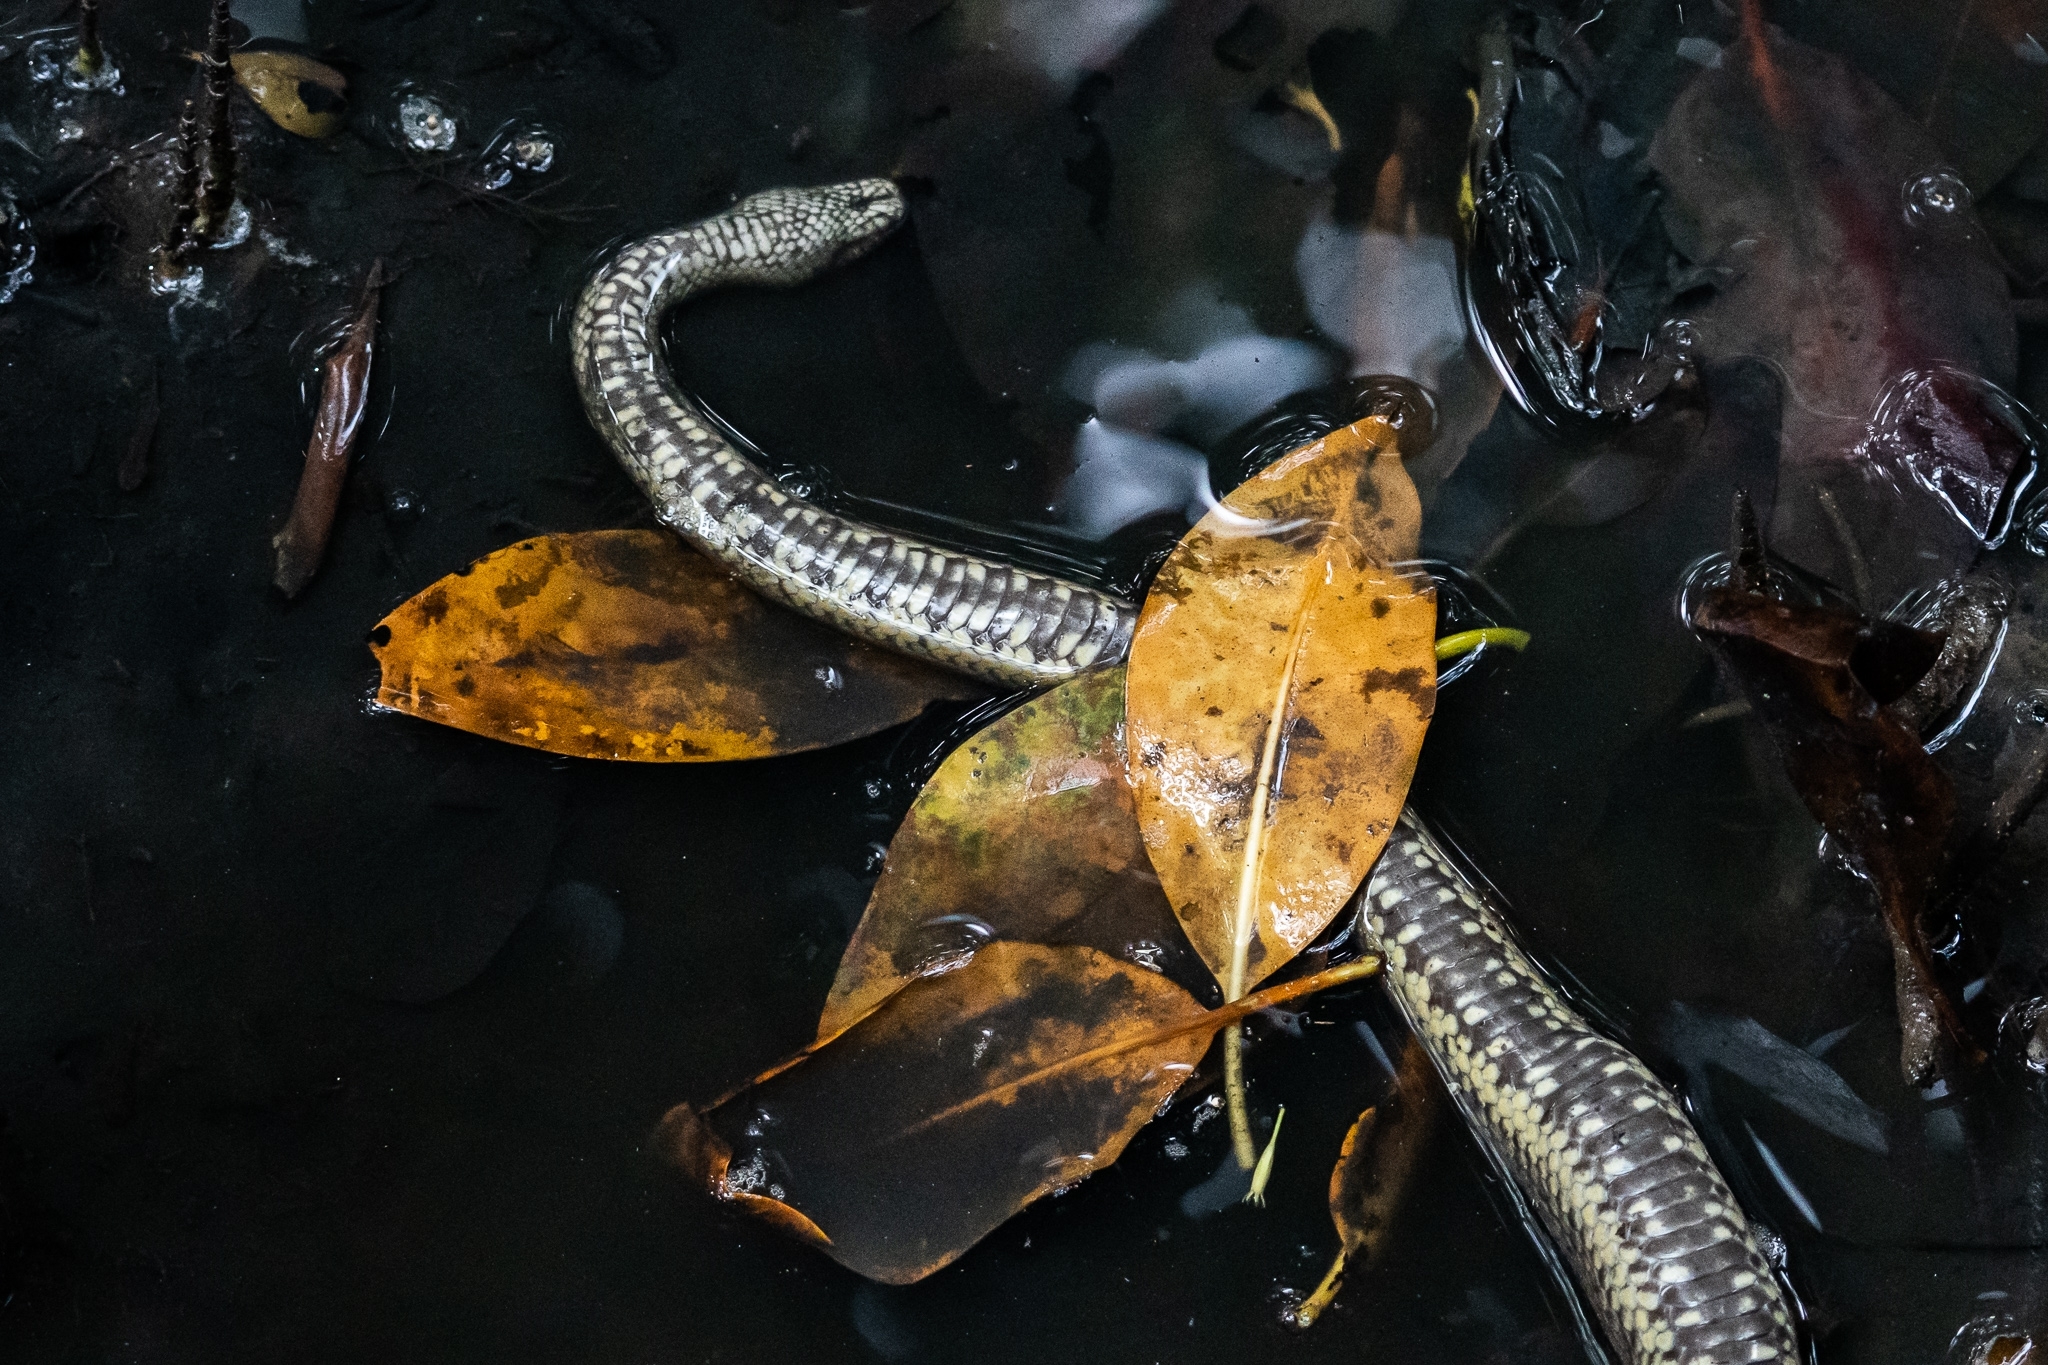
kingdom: Animalia
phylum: Chordata
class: Squamata
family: Homalopsidae
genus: Cerberus
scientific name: Cerberus schneiderii
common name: Southeast asian bockadam
